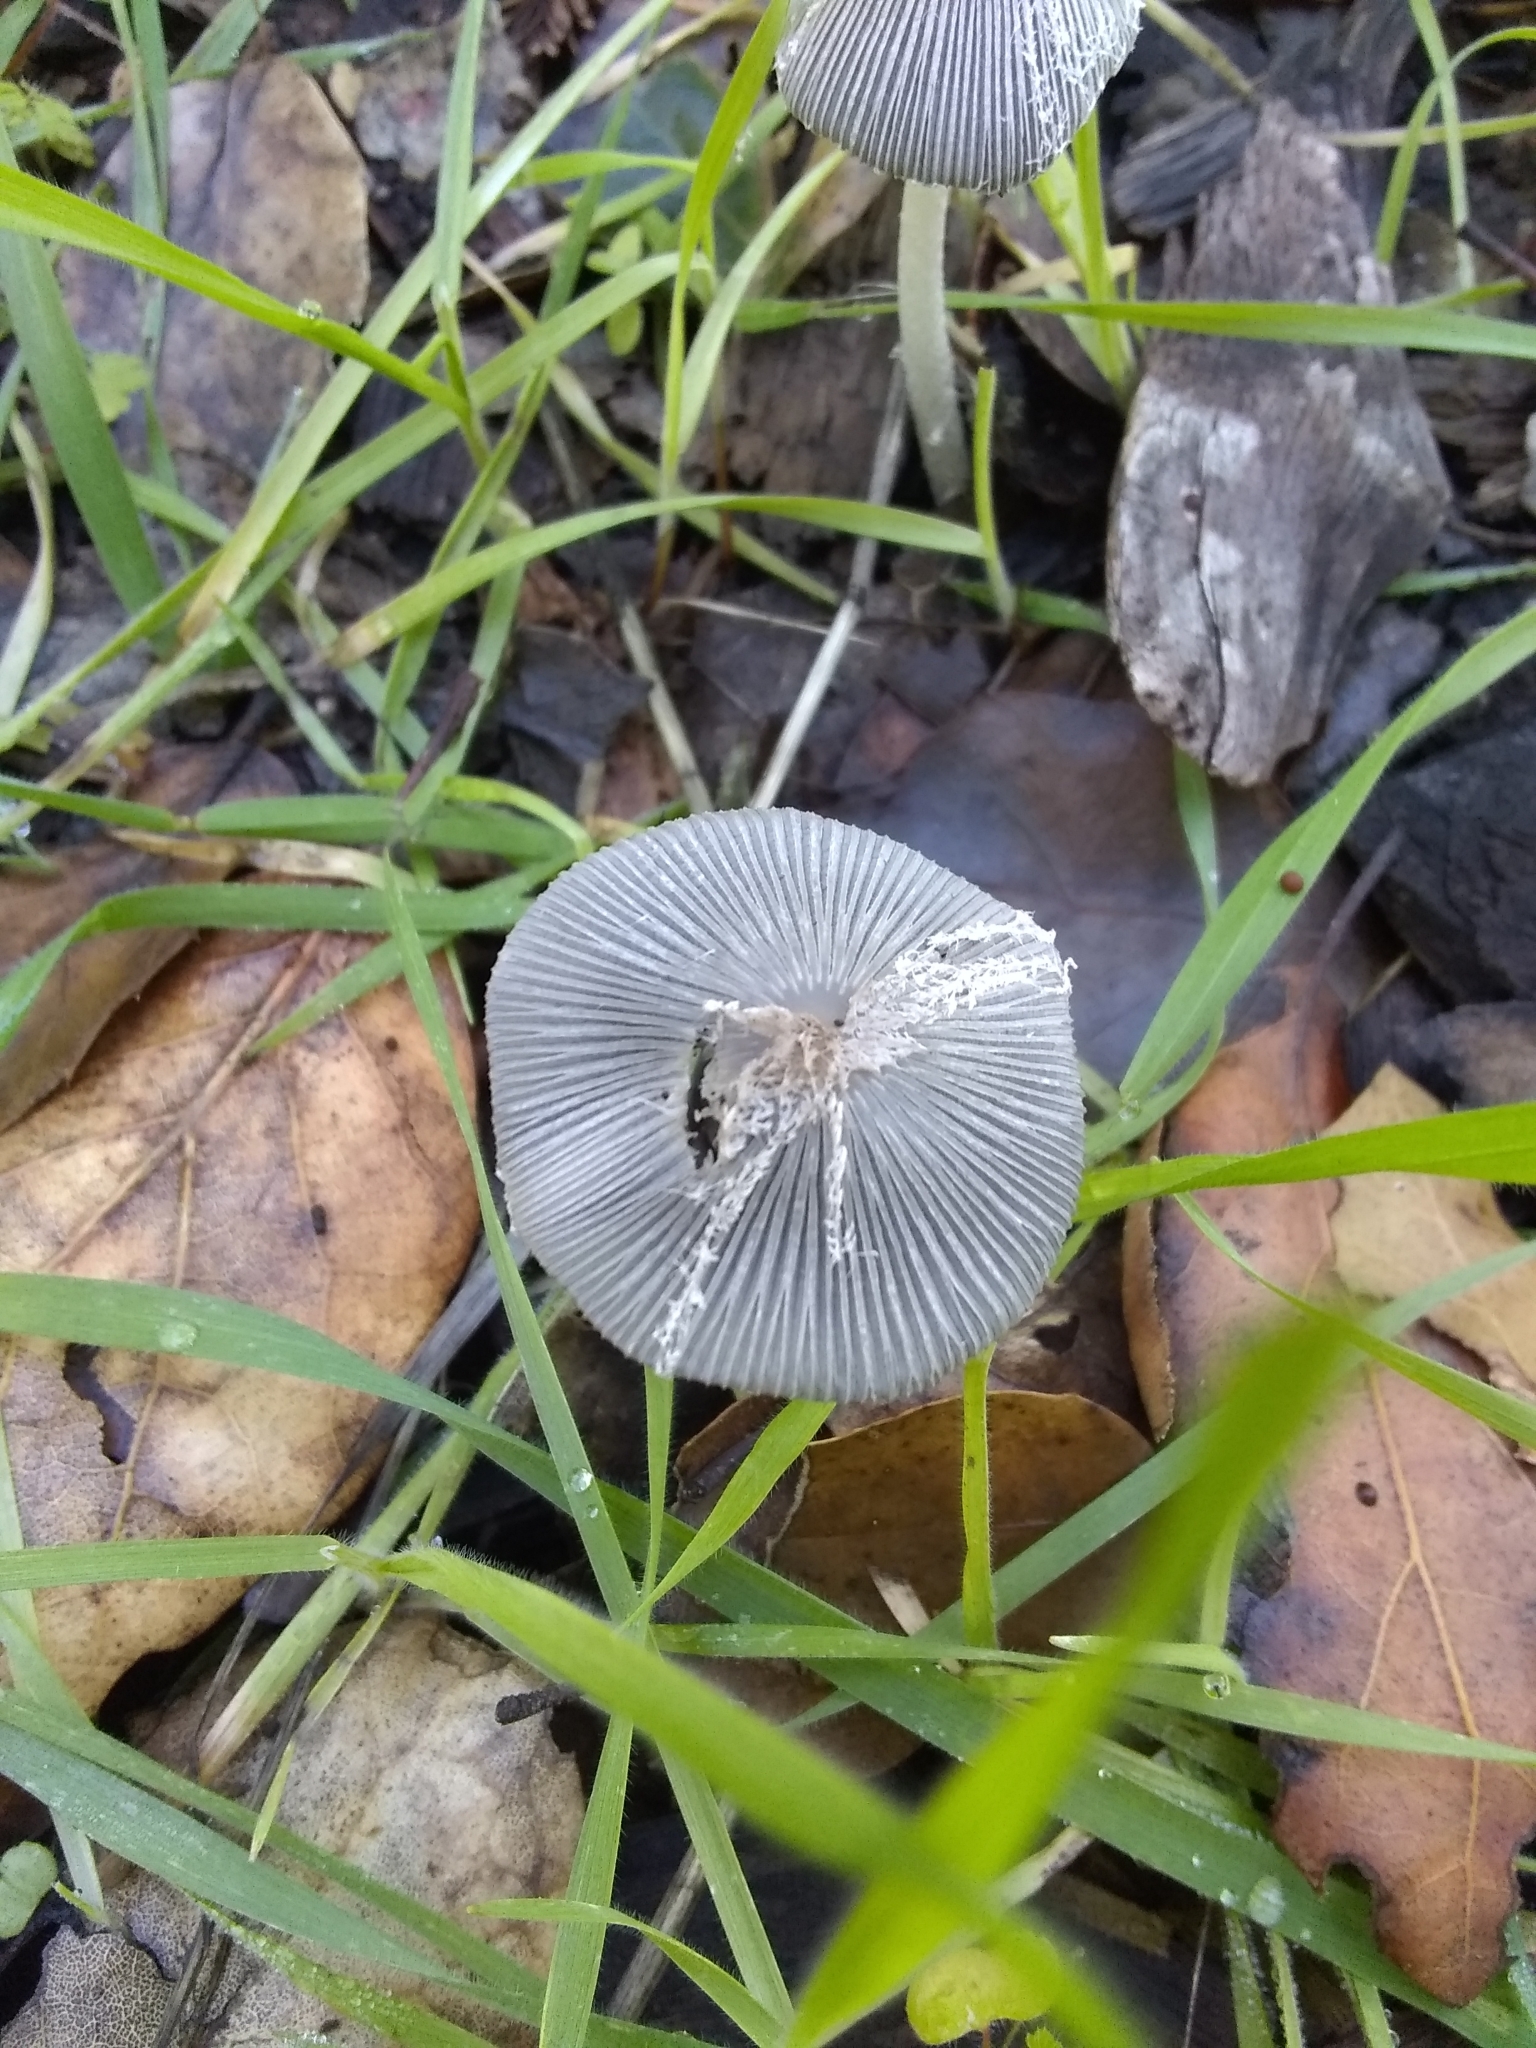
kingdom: Fungi
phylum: Basidiomycota
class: Agaricomycetes
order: Agaricales
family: Psathyrellaceae
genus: Coprinopsis
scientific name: Coprinopsis lagopus
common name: Hare'sfoot inkcap
